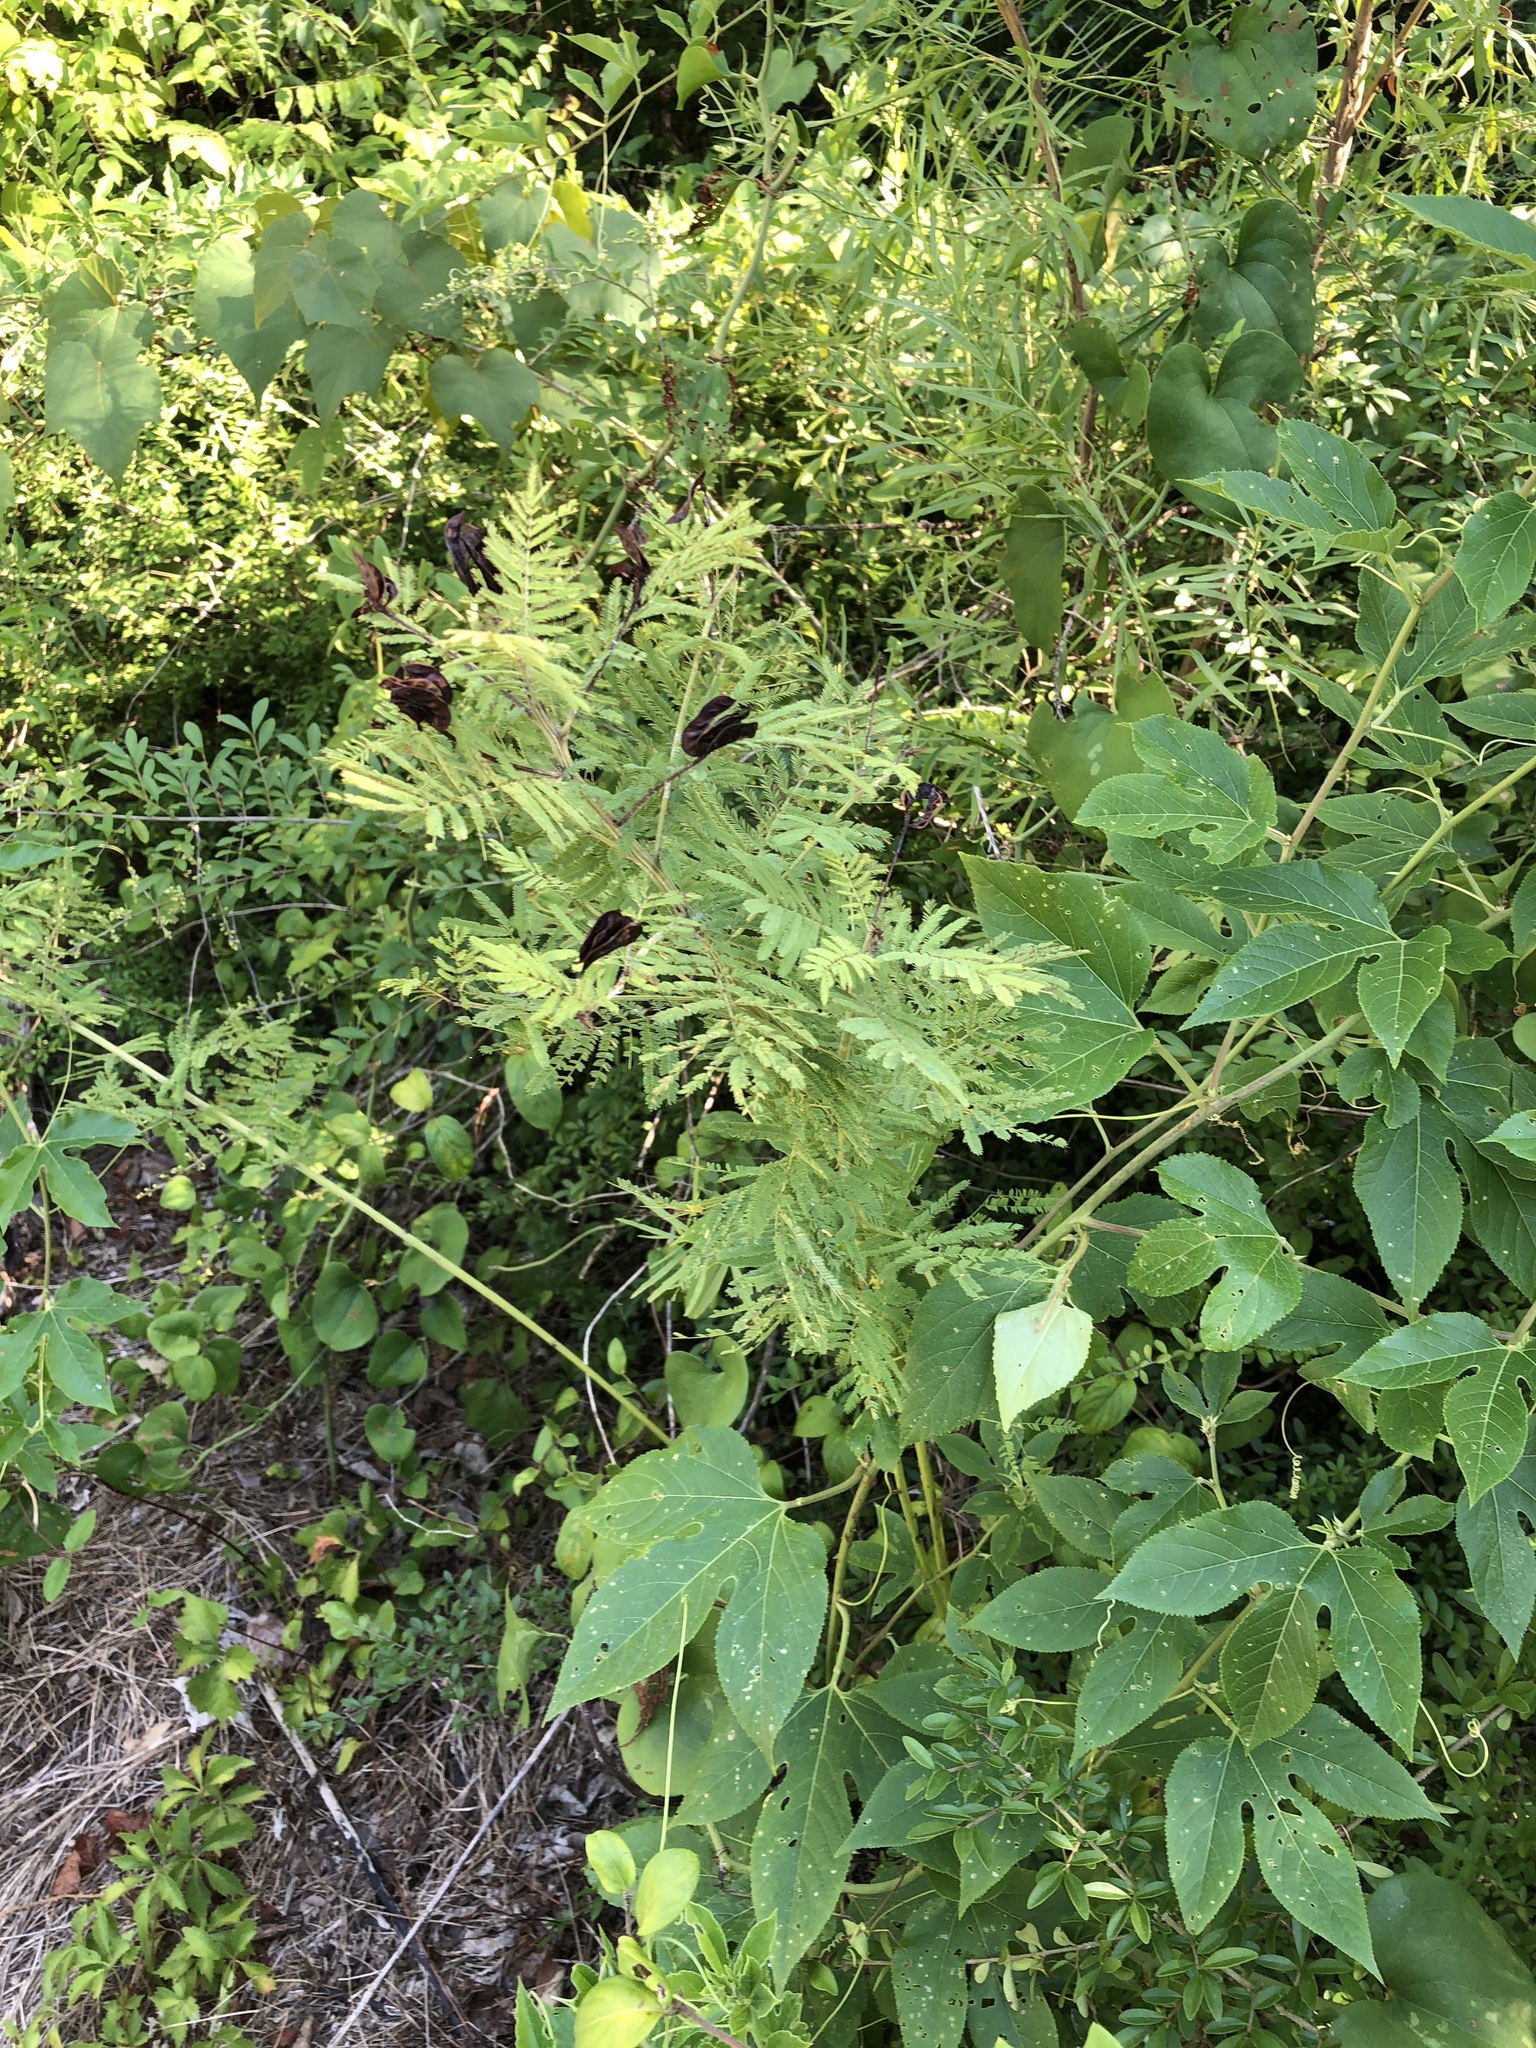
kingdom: Plantae
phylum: Tracheophyta
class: Magnoliopsida
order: Fabales
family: Fabaceae
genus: Desmanthus
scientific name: Desmanthus illinoensis
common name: Illinois bundle-flower
